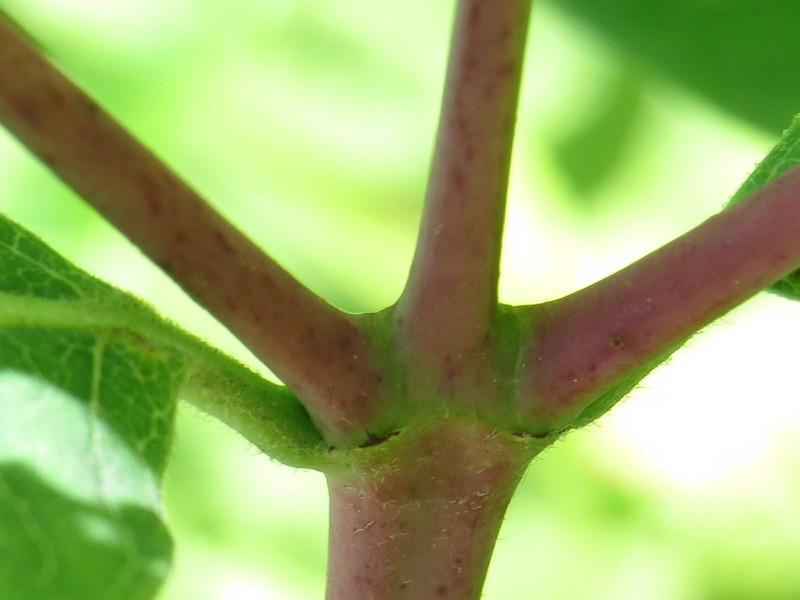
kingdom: Plantae
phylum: Tracheophyta
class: Magnoliopsida
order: Gentianales
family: Apocynaceae
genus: Apocynum
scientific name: Apocynum cannabinum
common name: Hemp dogbane
